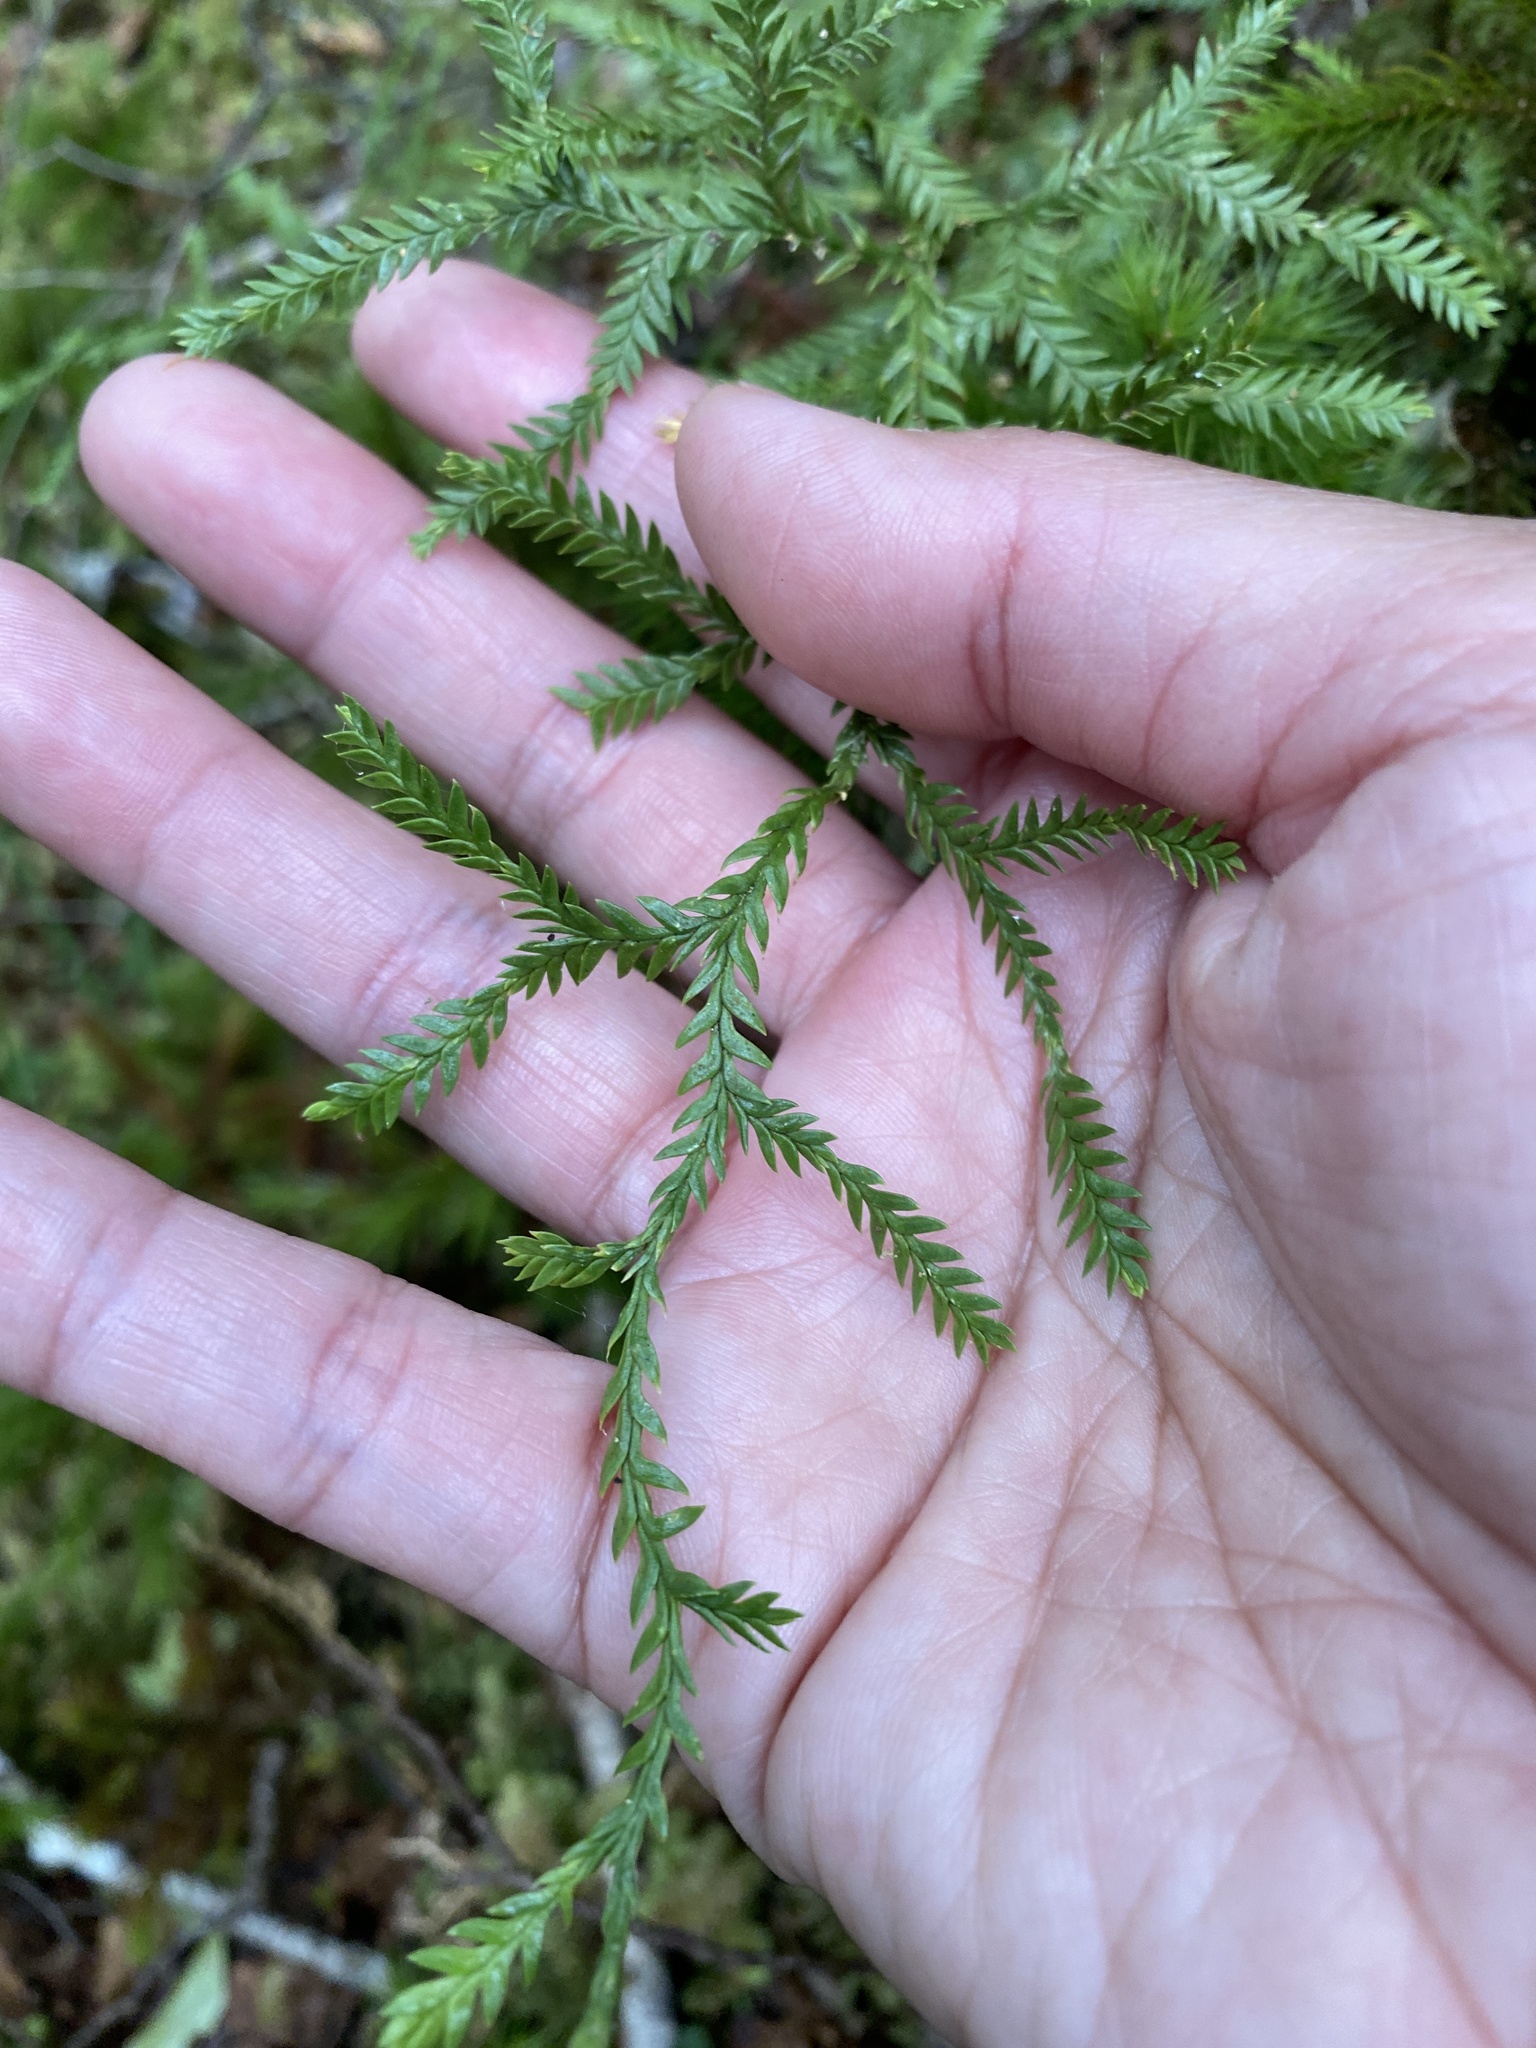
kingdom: Plantae
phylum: Tracheophyta
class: Lycopodiopsida
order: Lycopodiales
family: Lycopodiaceae
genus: Diphasium
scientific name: Diphasium scariosum
